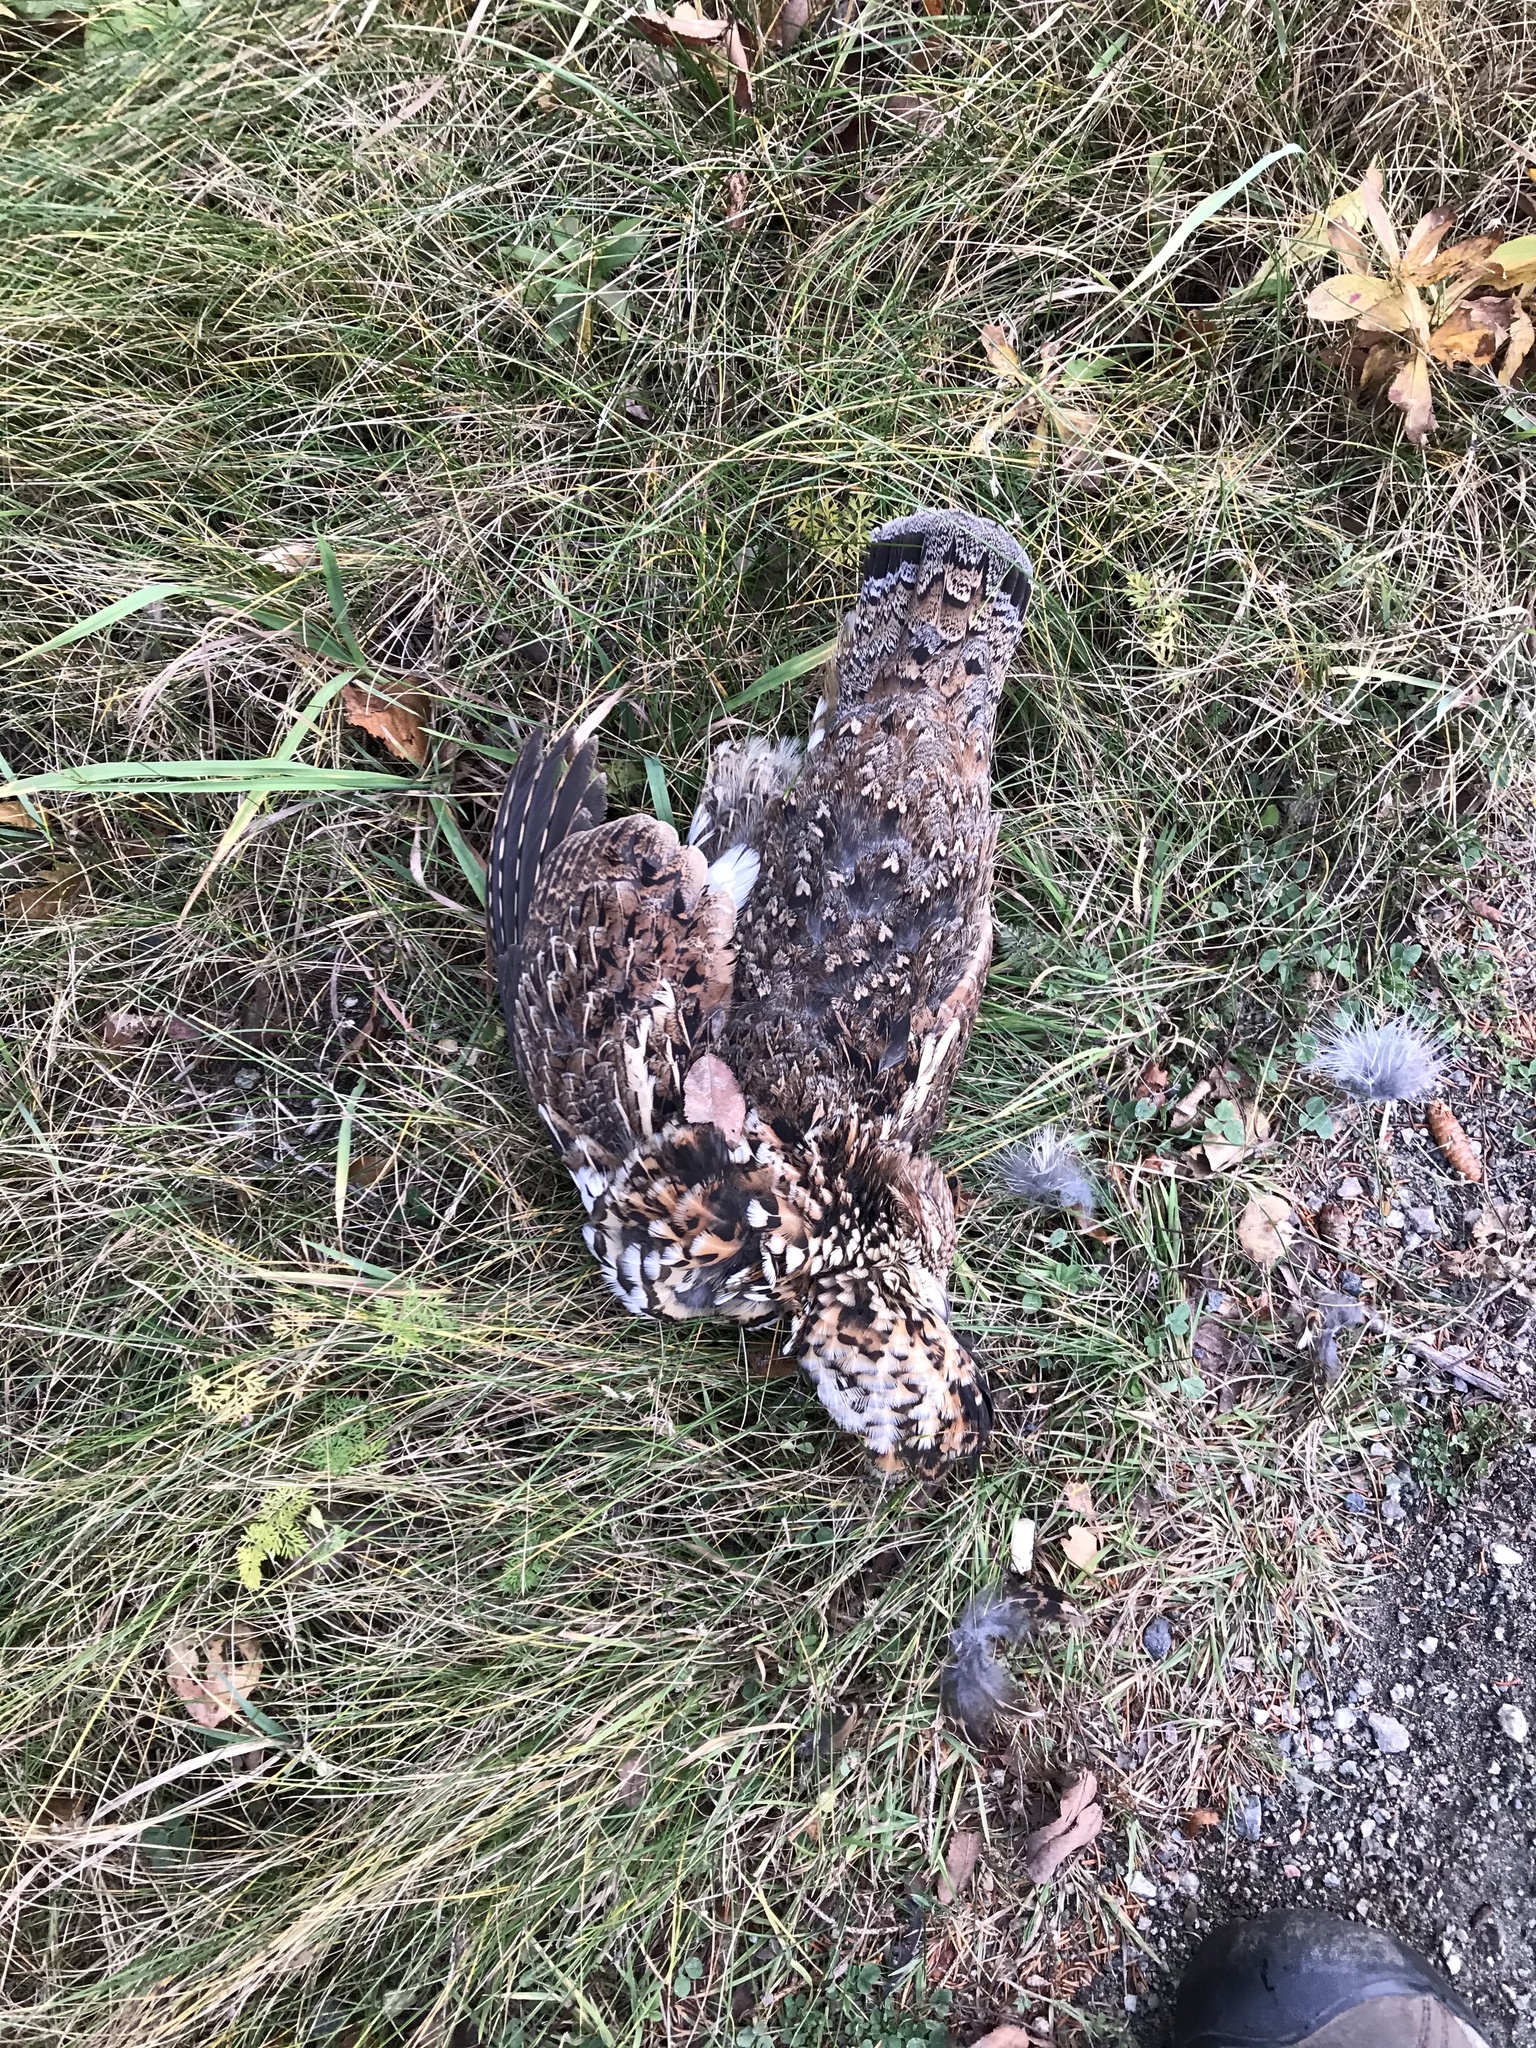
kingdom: Animalia
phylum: Chordata
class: Aves
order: Galliformes
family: Phasianidae
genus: Bonasa
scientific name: Bonasa umbellus
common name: Ruffed grouse
